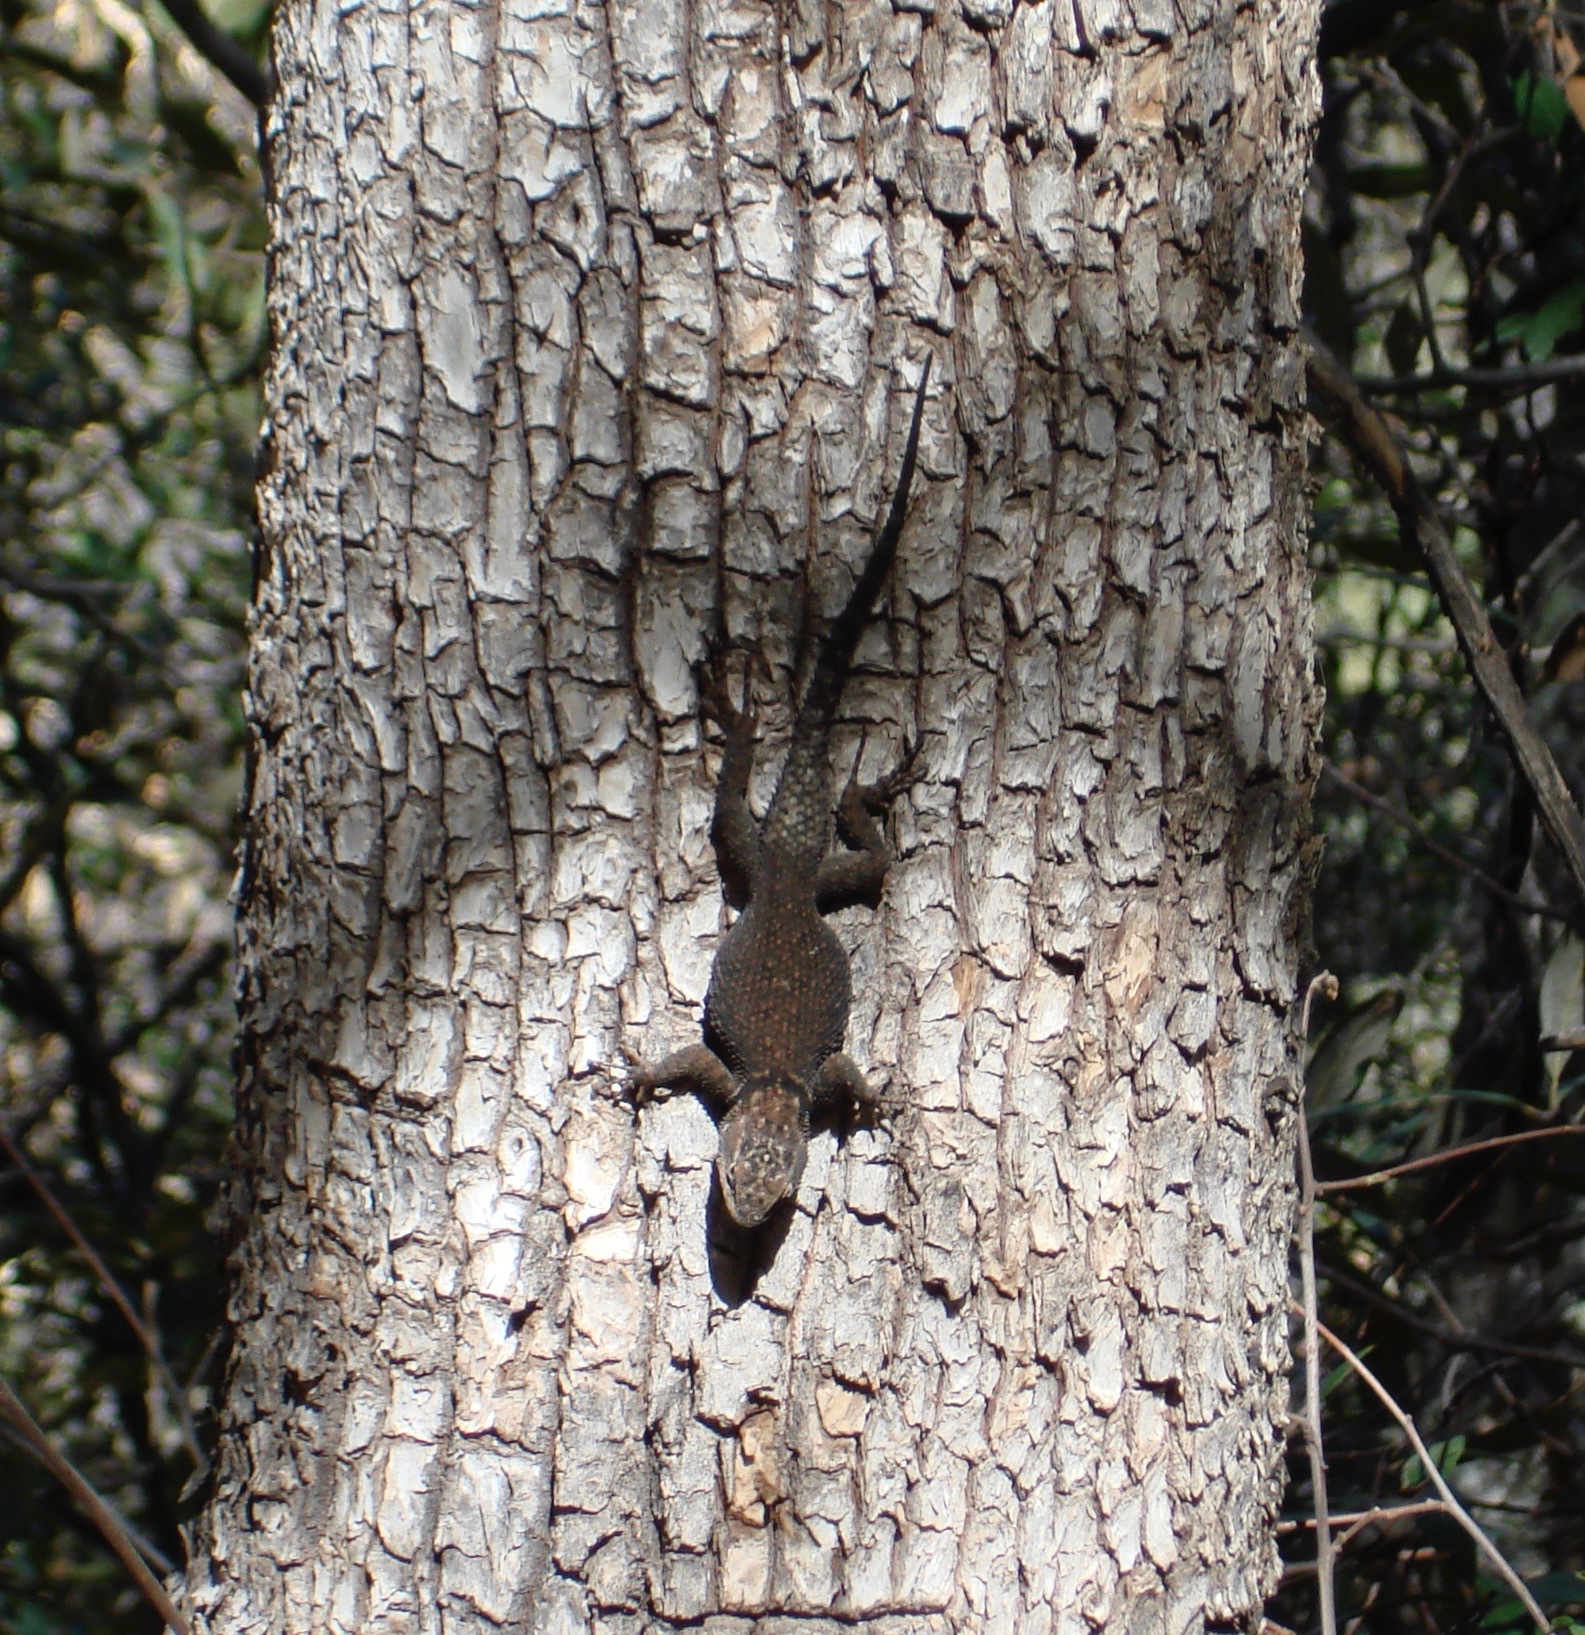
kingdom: Animalia
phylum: Chordata
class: Squamata
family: Phrynosomatidae
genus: Sceloporus
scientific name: Sceloporus jarrovii
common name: Yarrow's spiny lizard
